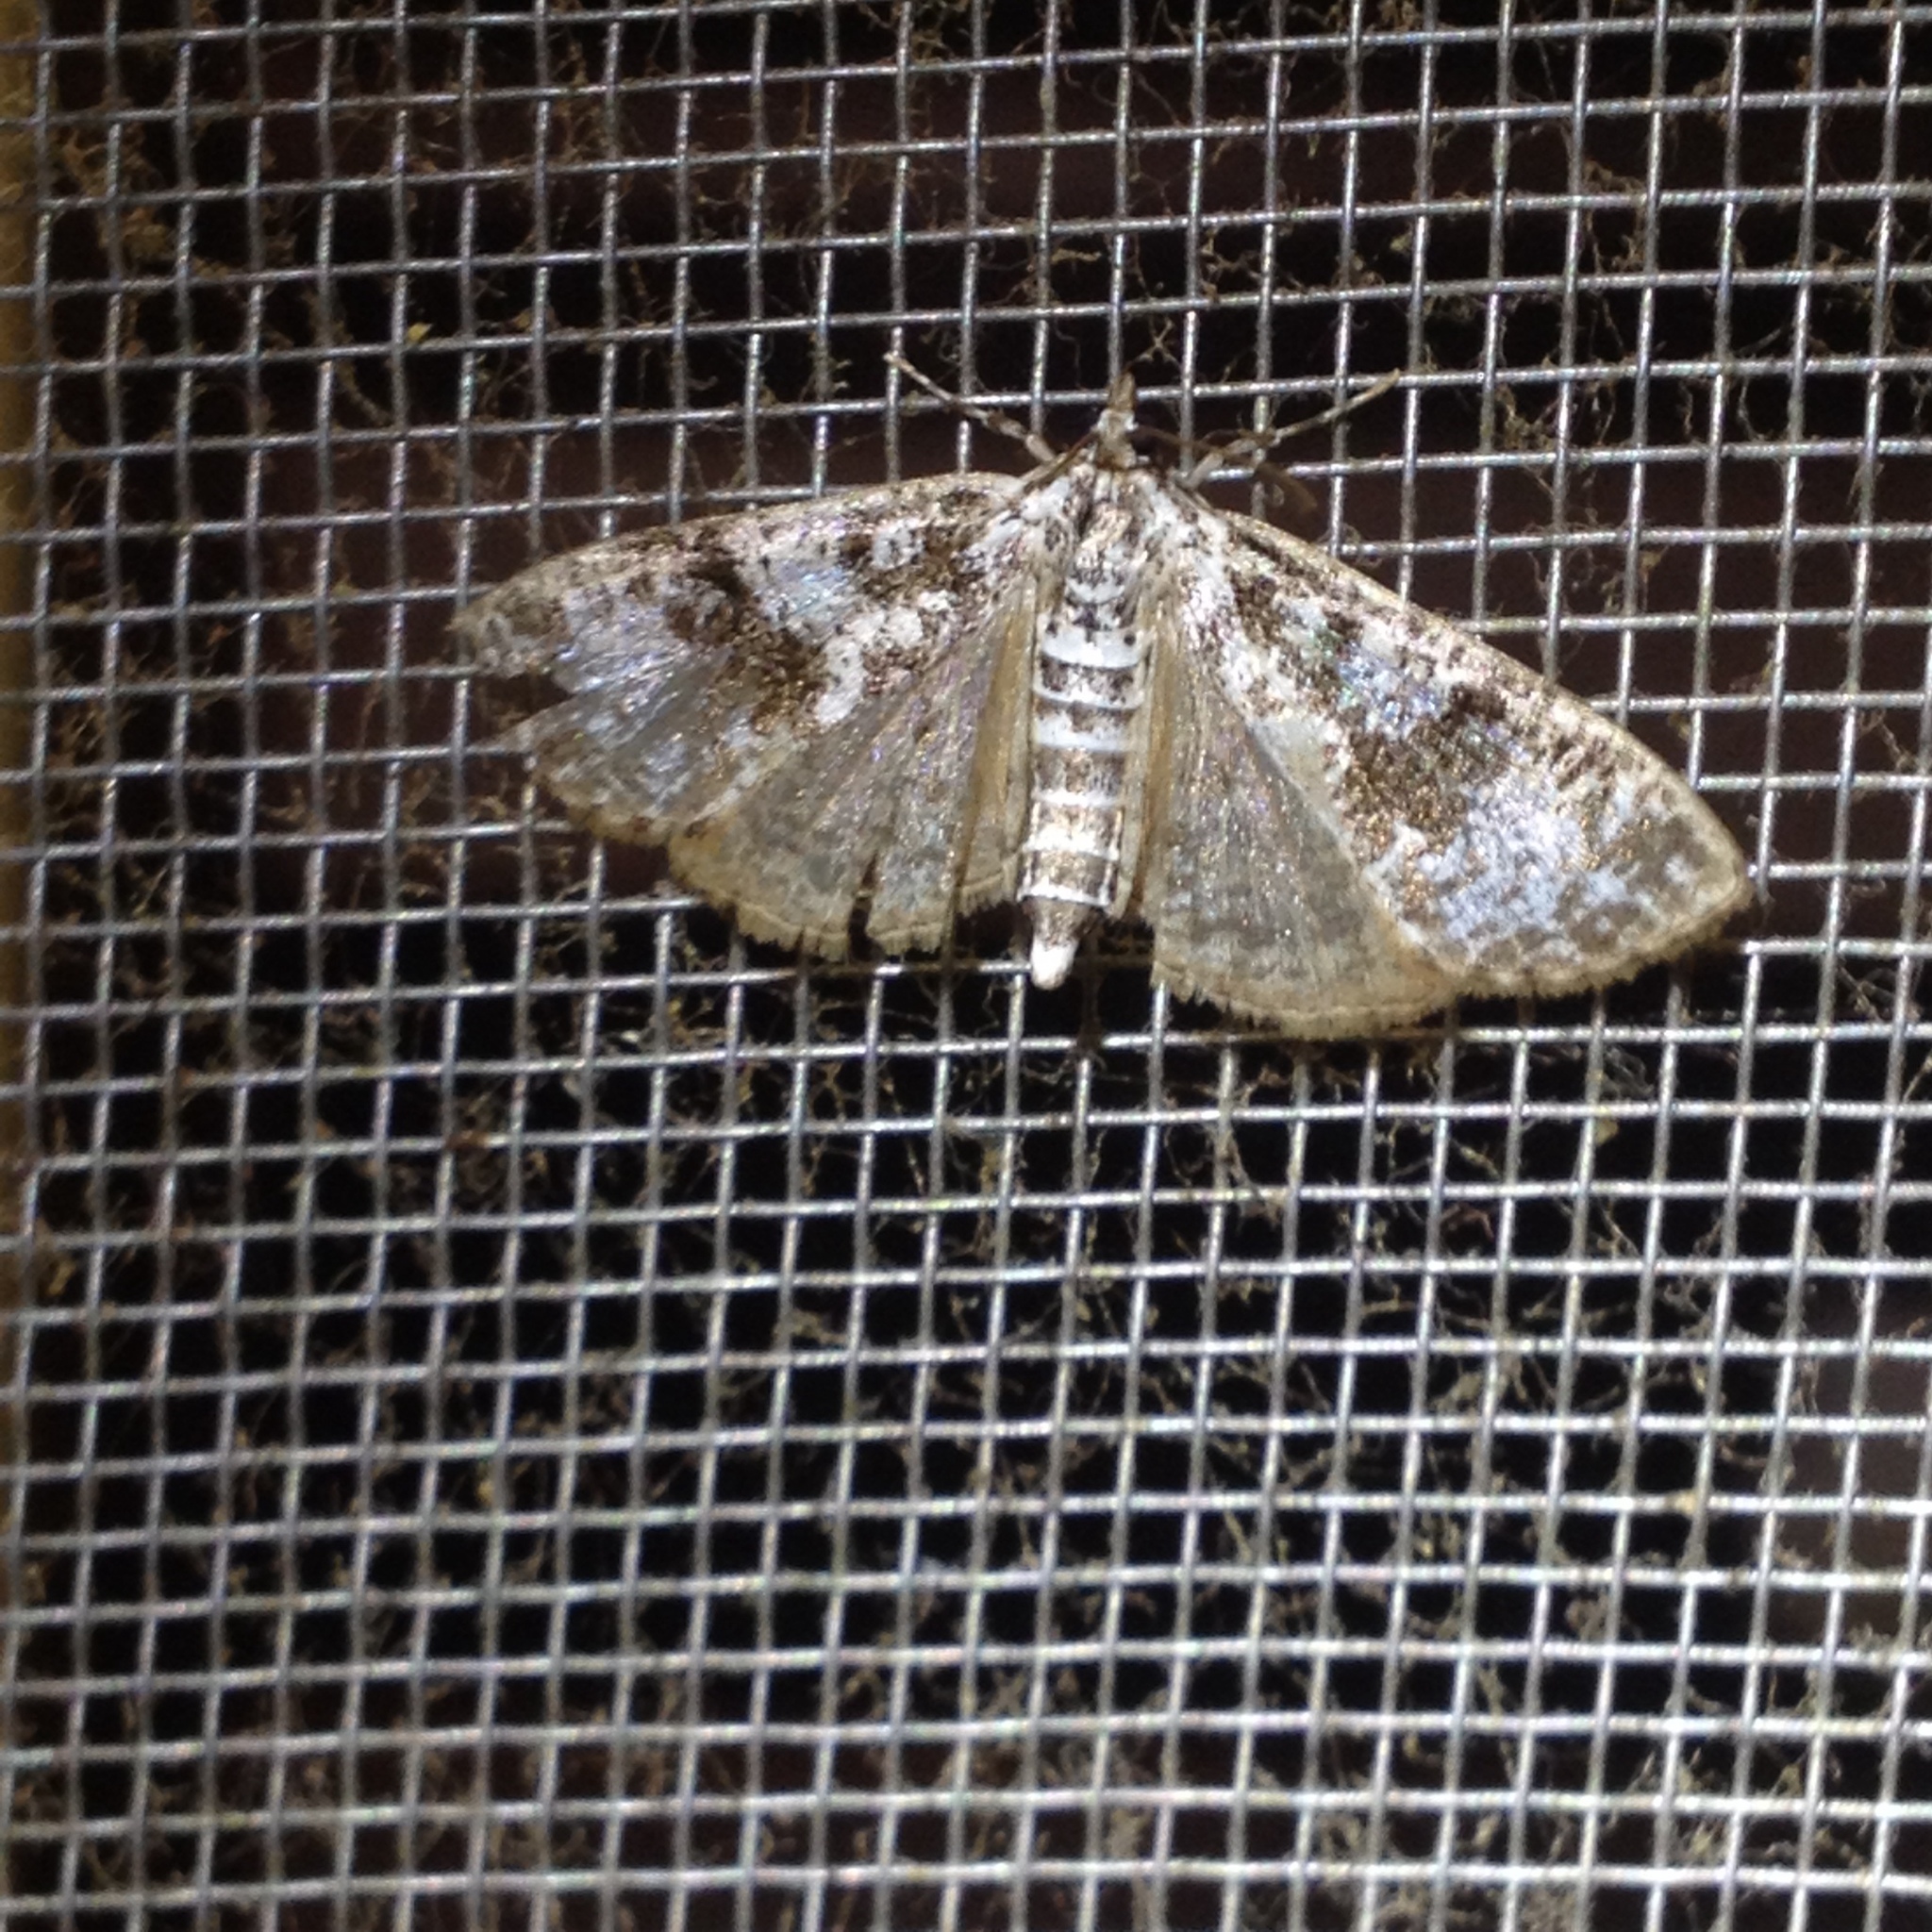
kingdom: Animalia
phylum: Arthropoda
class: Insecta
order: Lepidoptera
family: Crambidae
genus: Palpita
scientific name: Palpita magniferalis
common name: Splendid palpita moth
